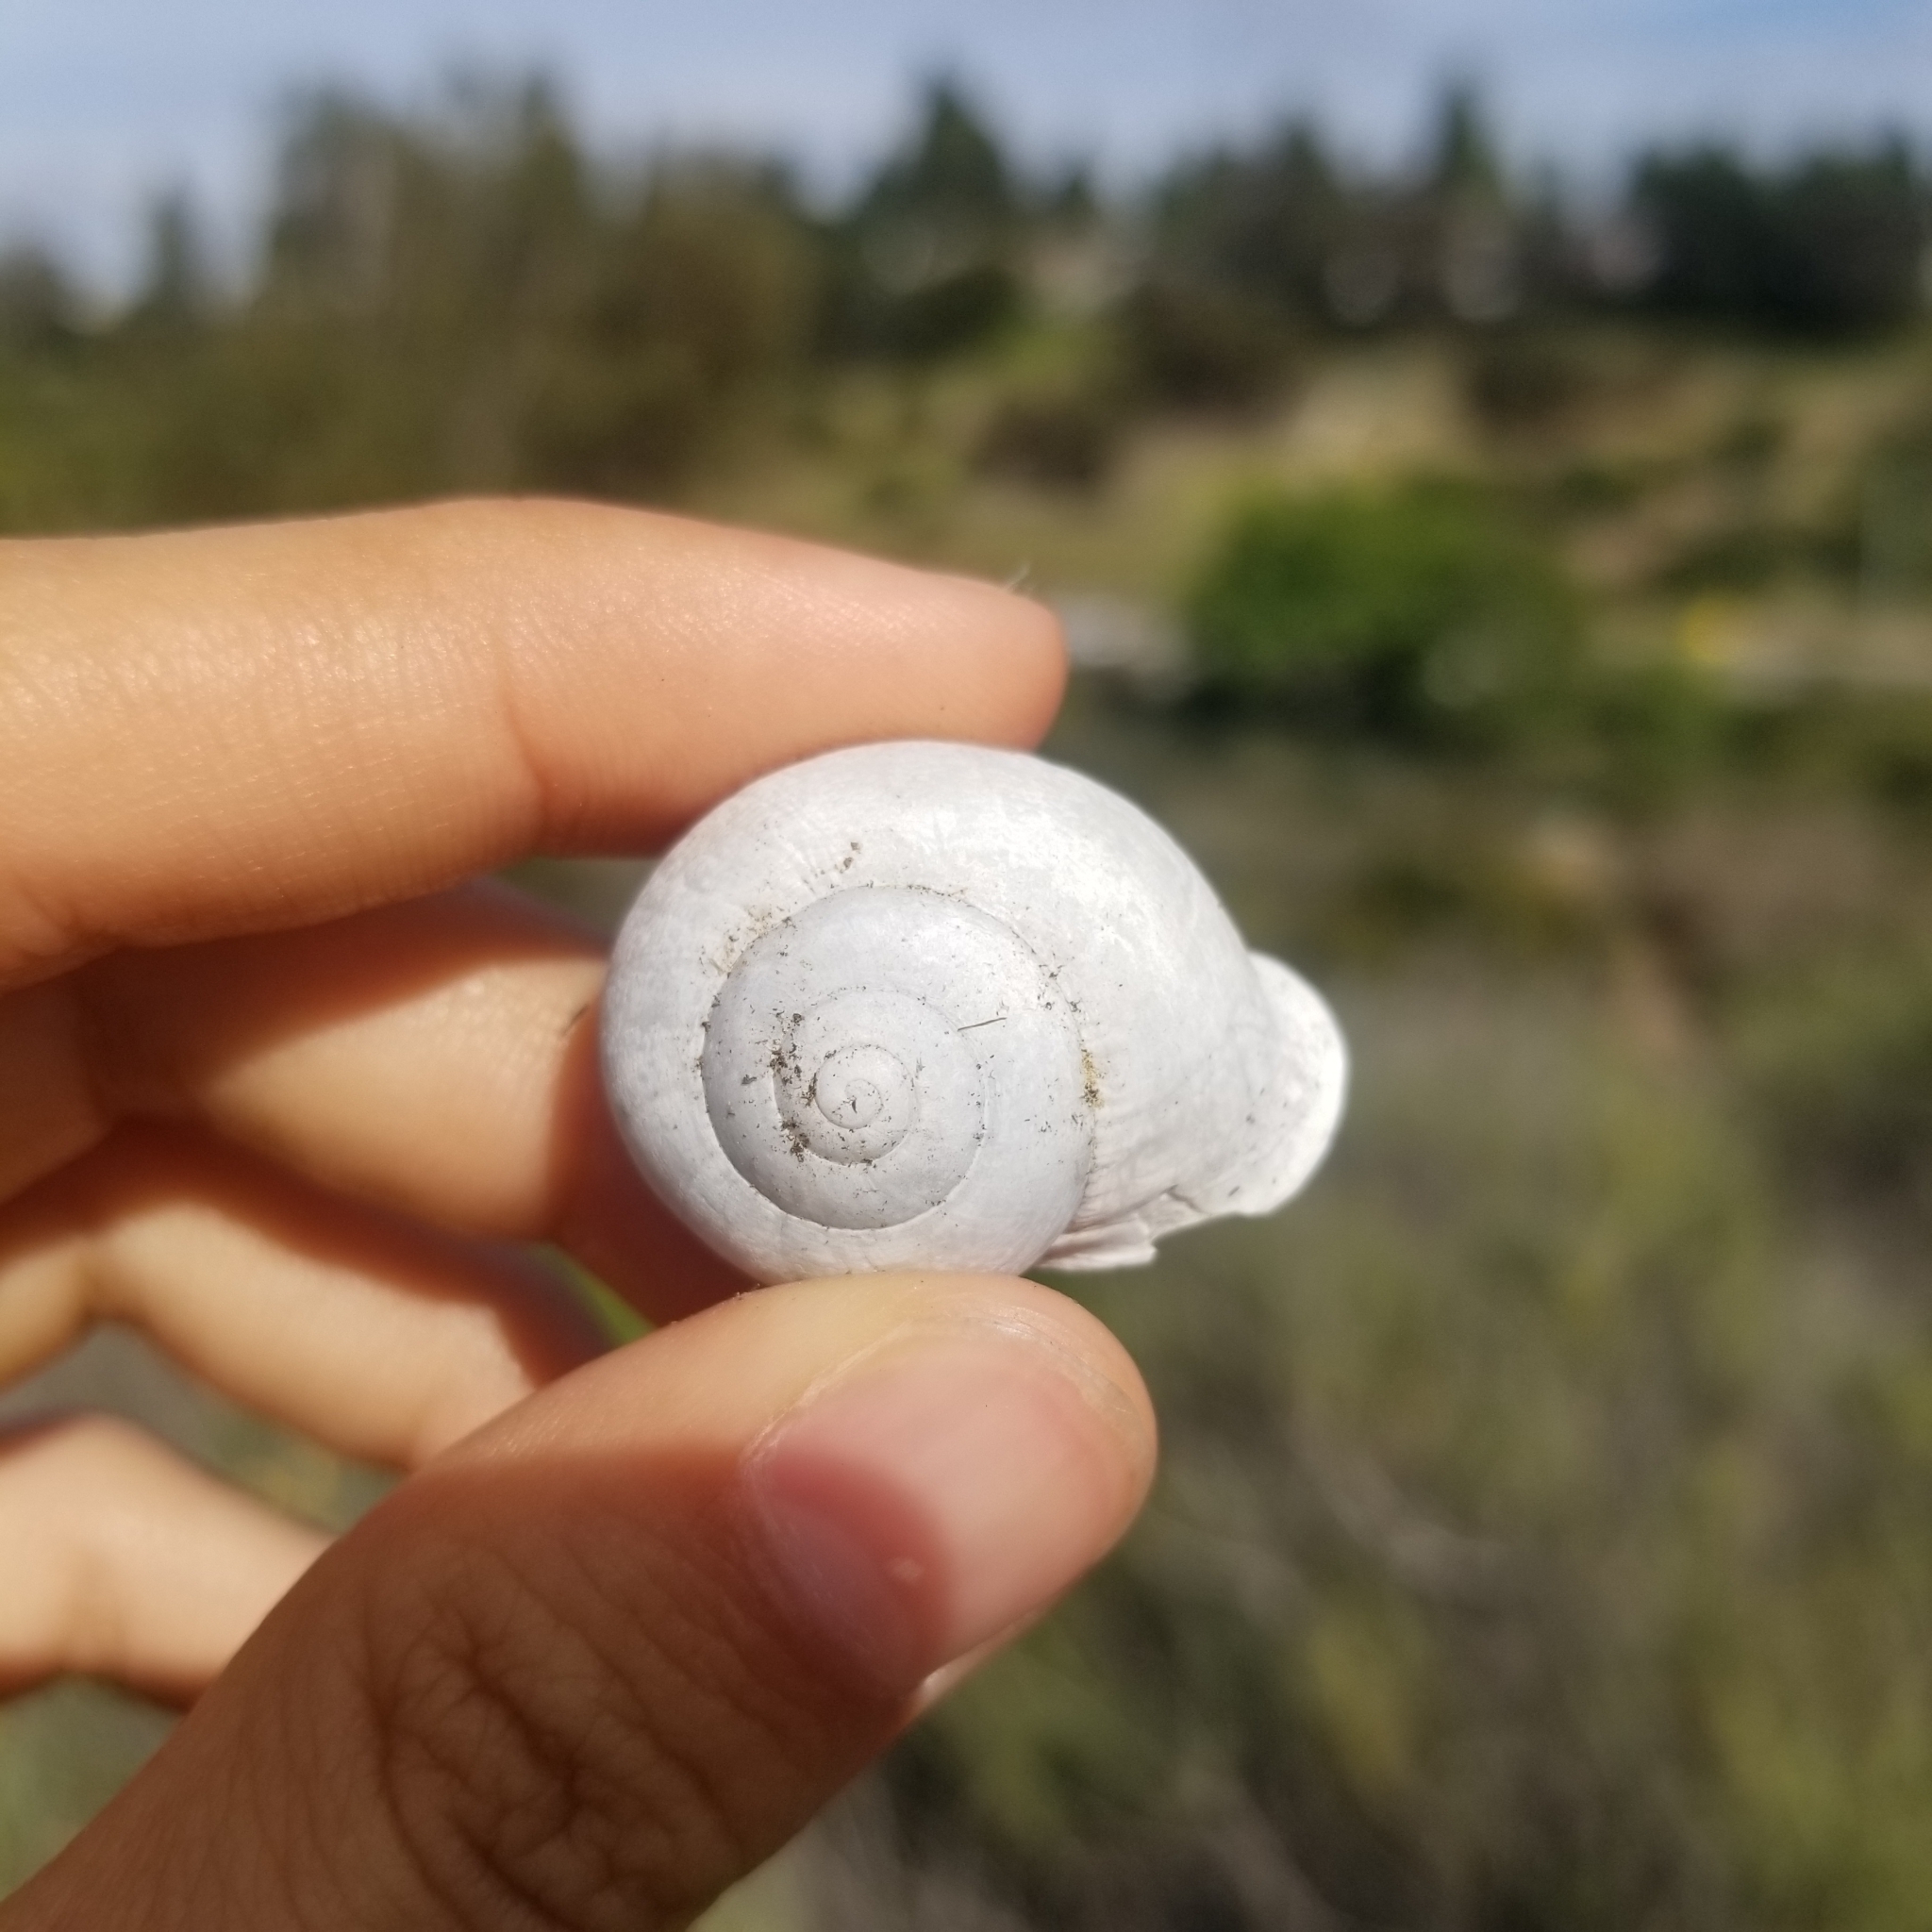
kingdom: Animalia
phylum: Mollusca
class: Gastropoda
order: Stylommatophora
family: Helicidae
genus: Otala
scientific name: Otala lactea
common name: Milk snail
